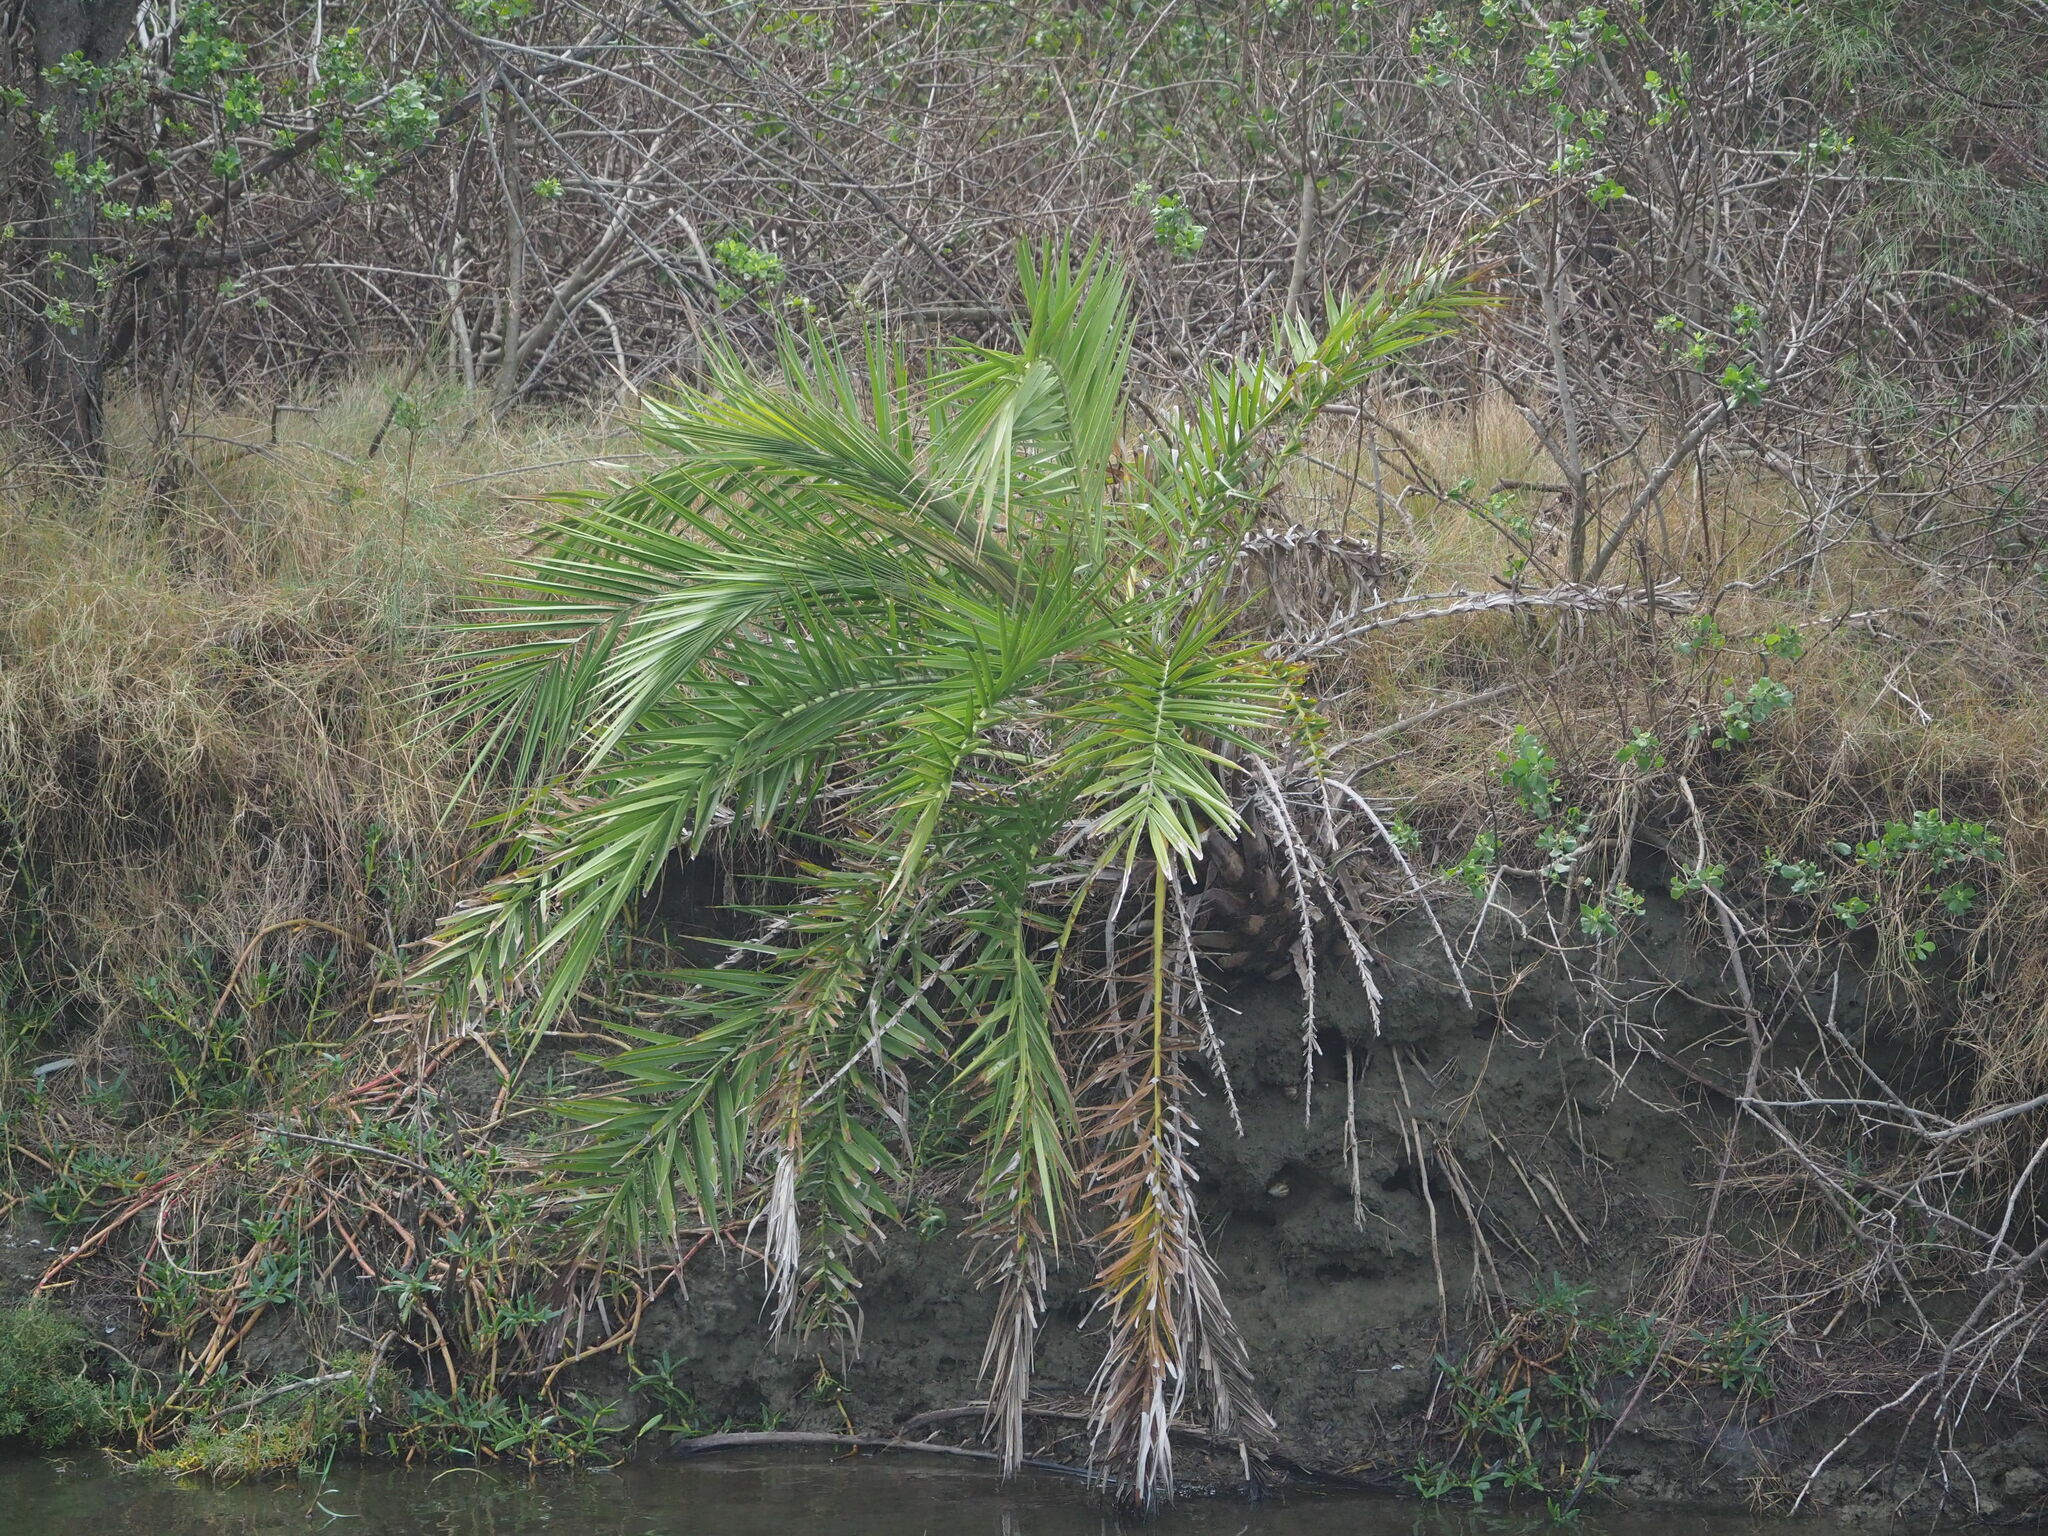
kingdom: Plantae
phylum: Tracheophyta
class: Liliopsida
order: Arecales
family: Arecaceae
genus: Phoenix
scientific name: Phoenix loureiroi
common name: Loureiro's palm
